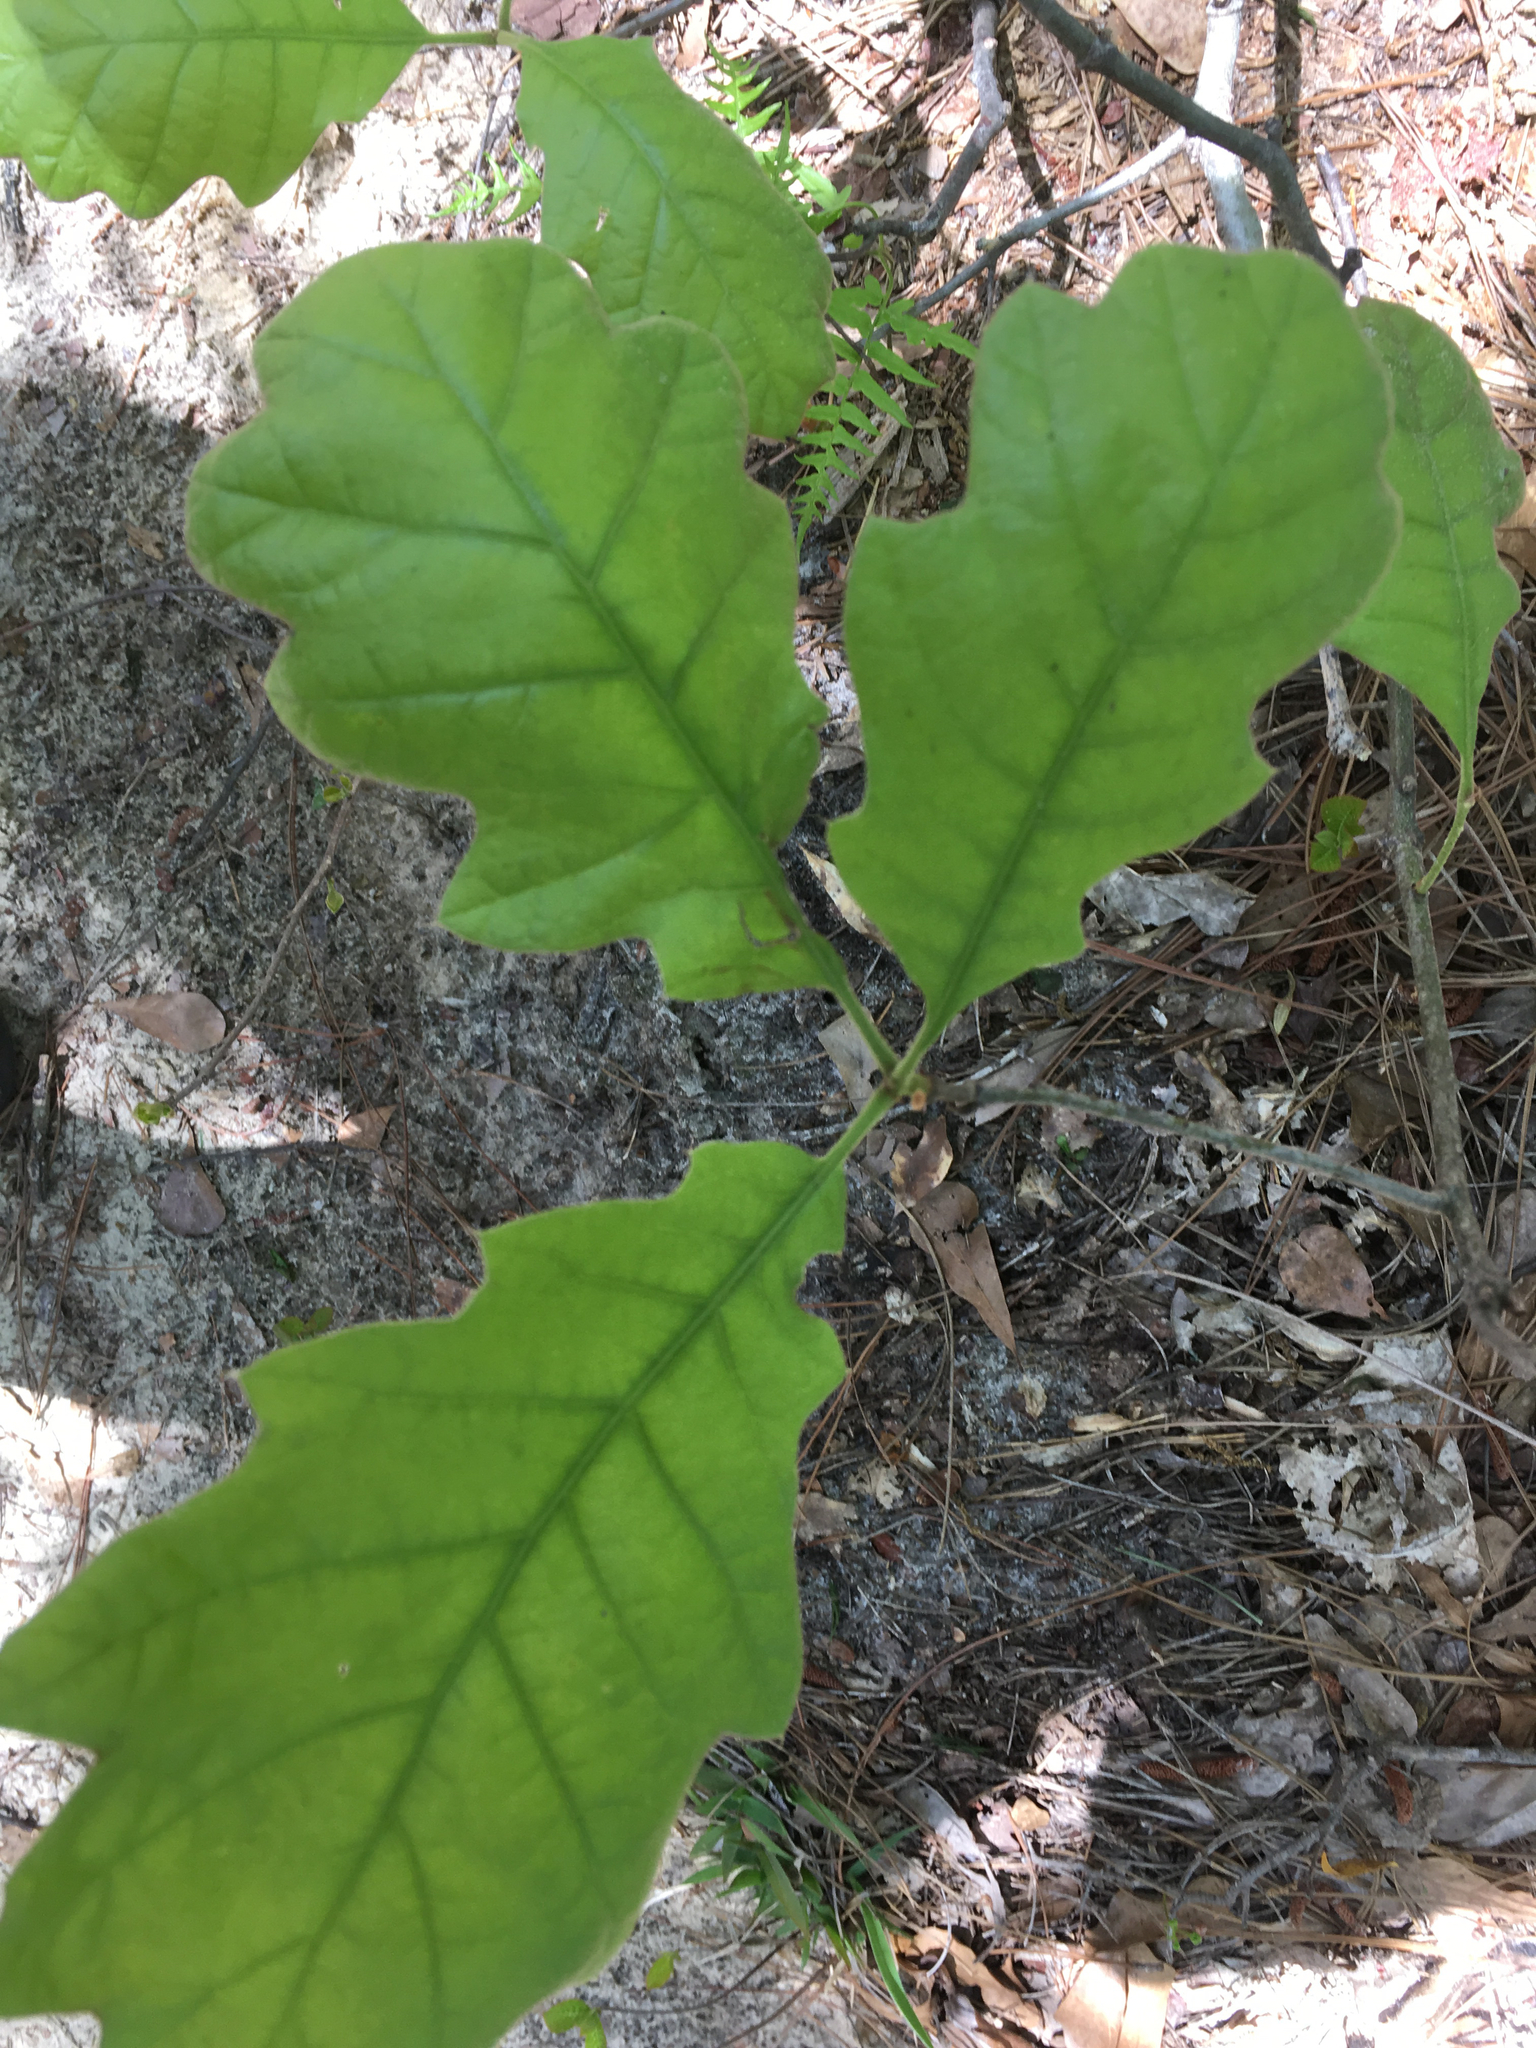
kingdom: Plantae
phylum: Tracheophyta
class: Magnoliopsida
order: Fagales
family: Fagaceae
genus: Quercus
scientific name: Quercus velutina
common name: Black oak
